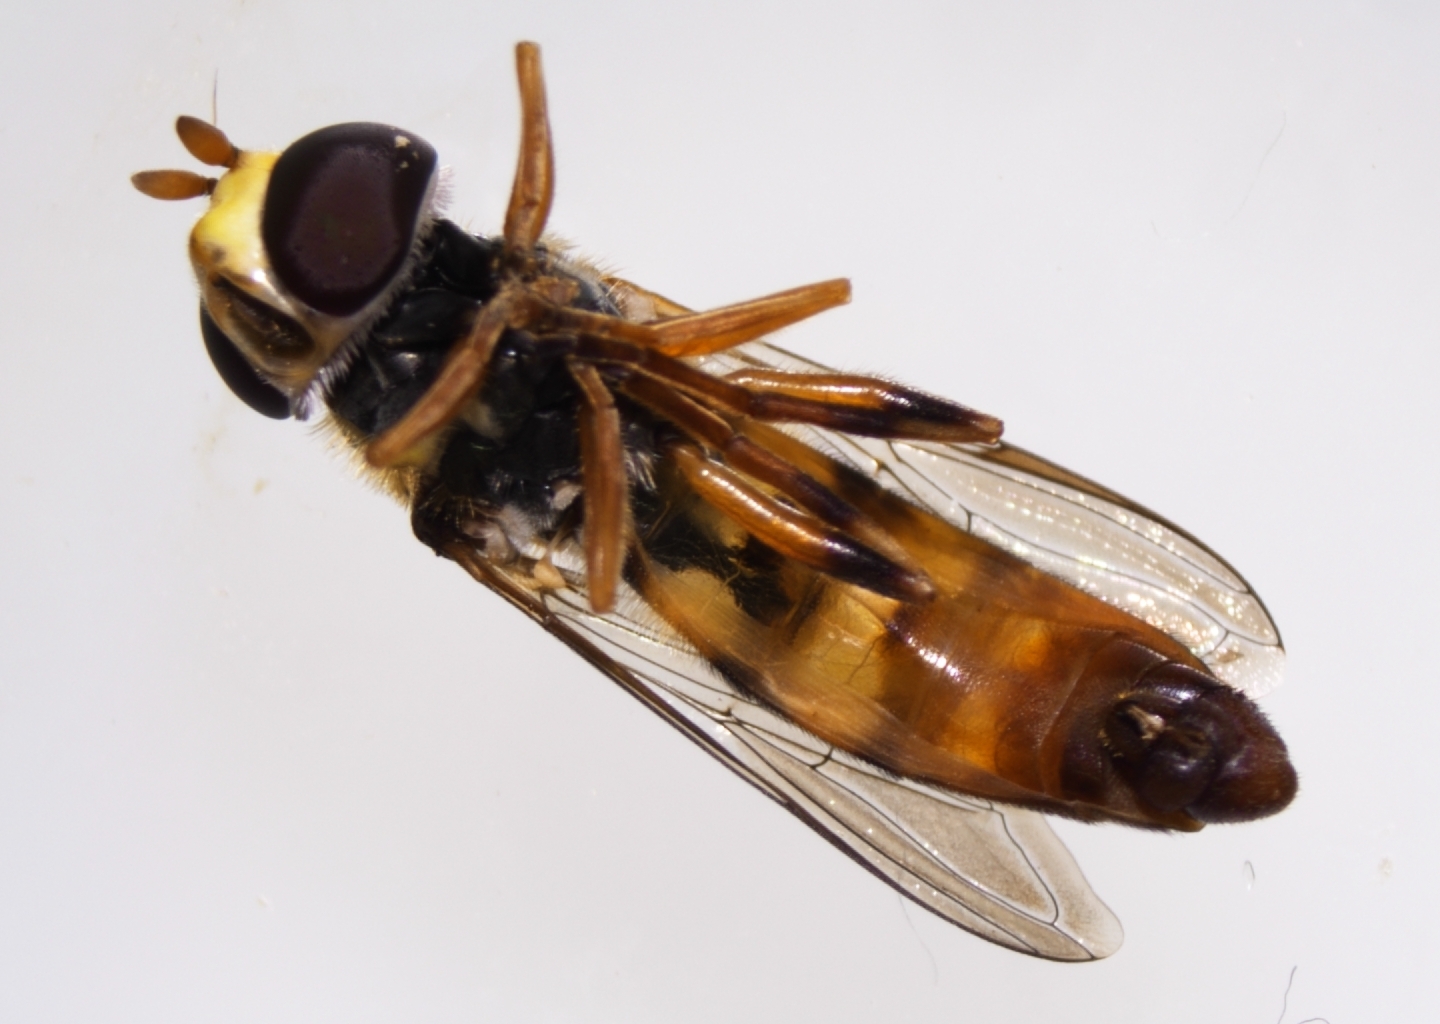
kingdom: Animalia
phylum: Arthropoda
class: Insecta
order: Diptera
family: Syrphidae
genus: Ischiodon
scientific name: Ischiodon scutellaris
